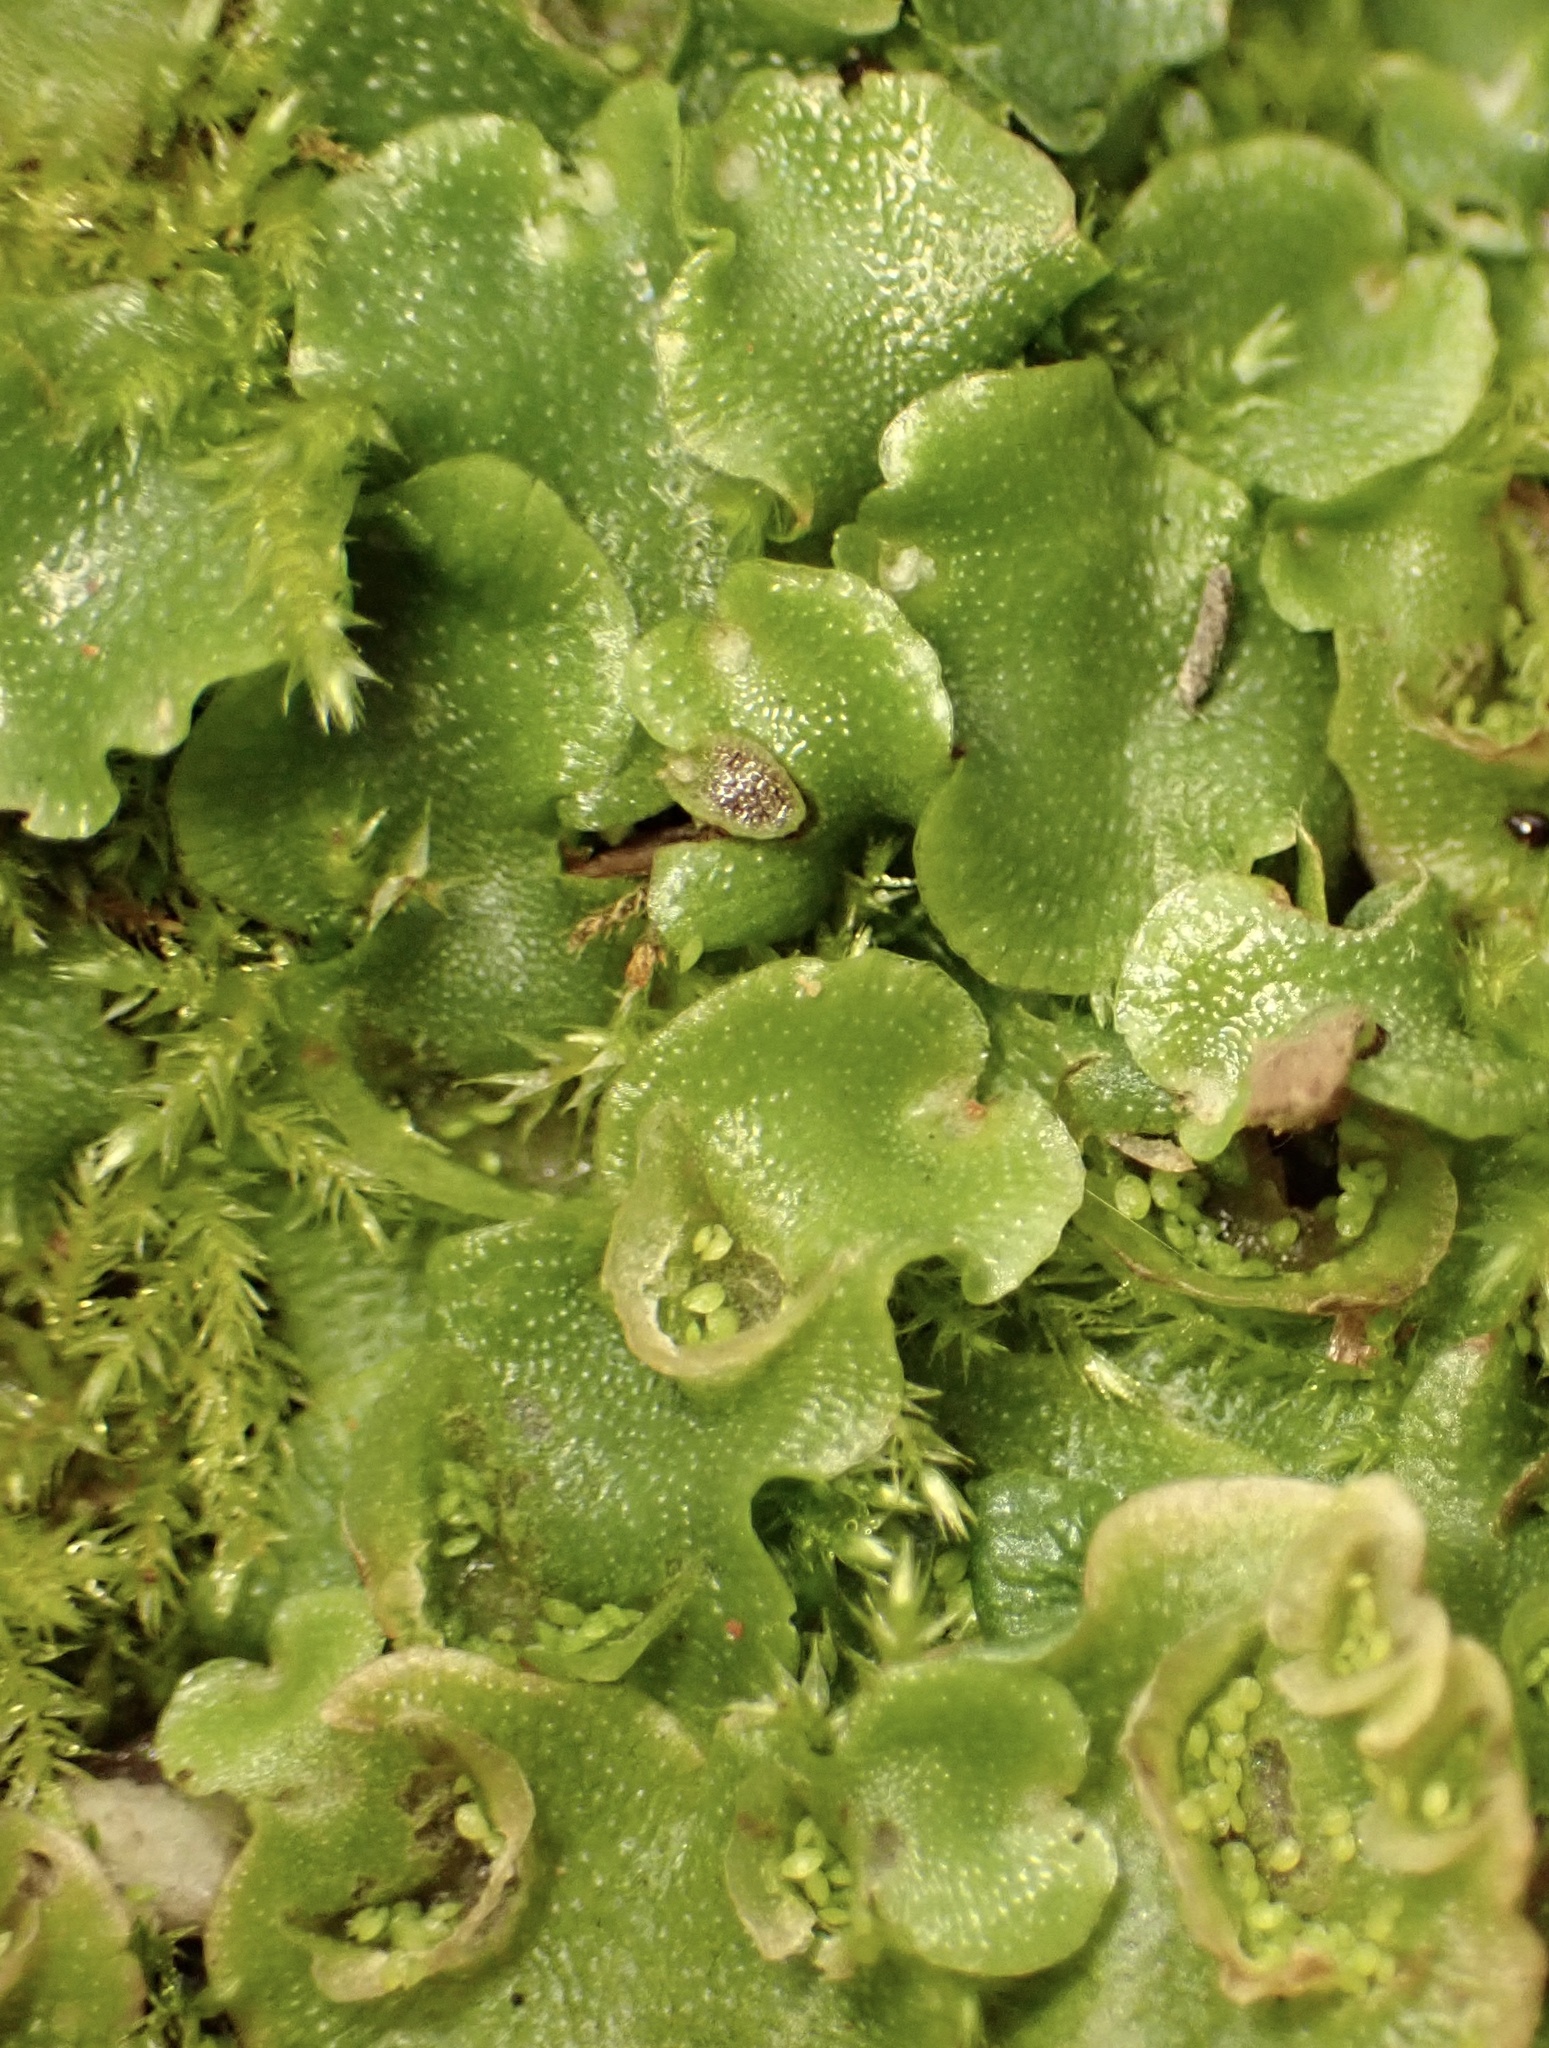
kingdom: Plantae
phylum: Marchantiophyta
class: Marchantiopsida
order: Lunulariales
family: Lunulariaceae
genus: Lunularia
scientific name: Lunularia cruciata
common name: Crescent-cup liverwort
